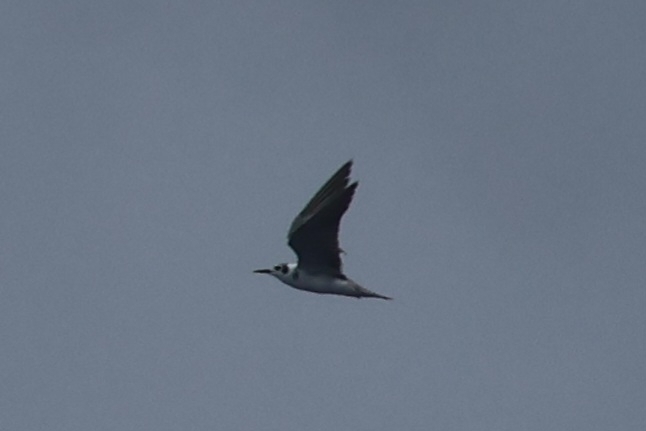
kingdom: Animalia
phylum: Chordata
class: Aves
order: Charadriiformes
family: Laridae
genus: Chlidonias
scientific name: Chlidonias niger
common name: Black tern
